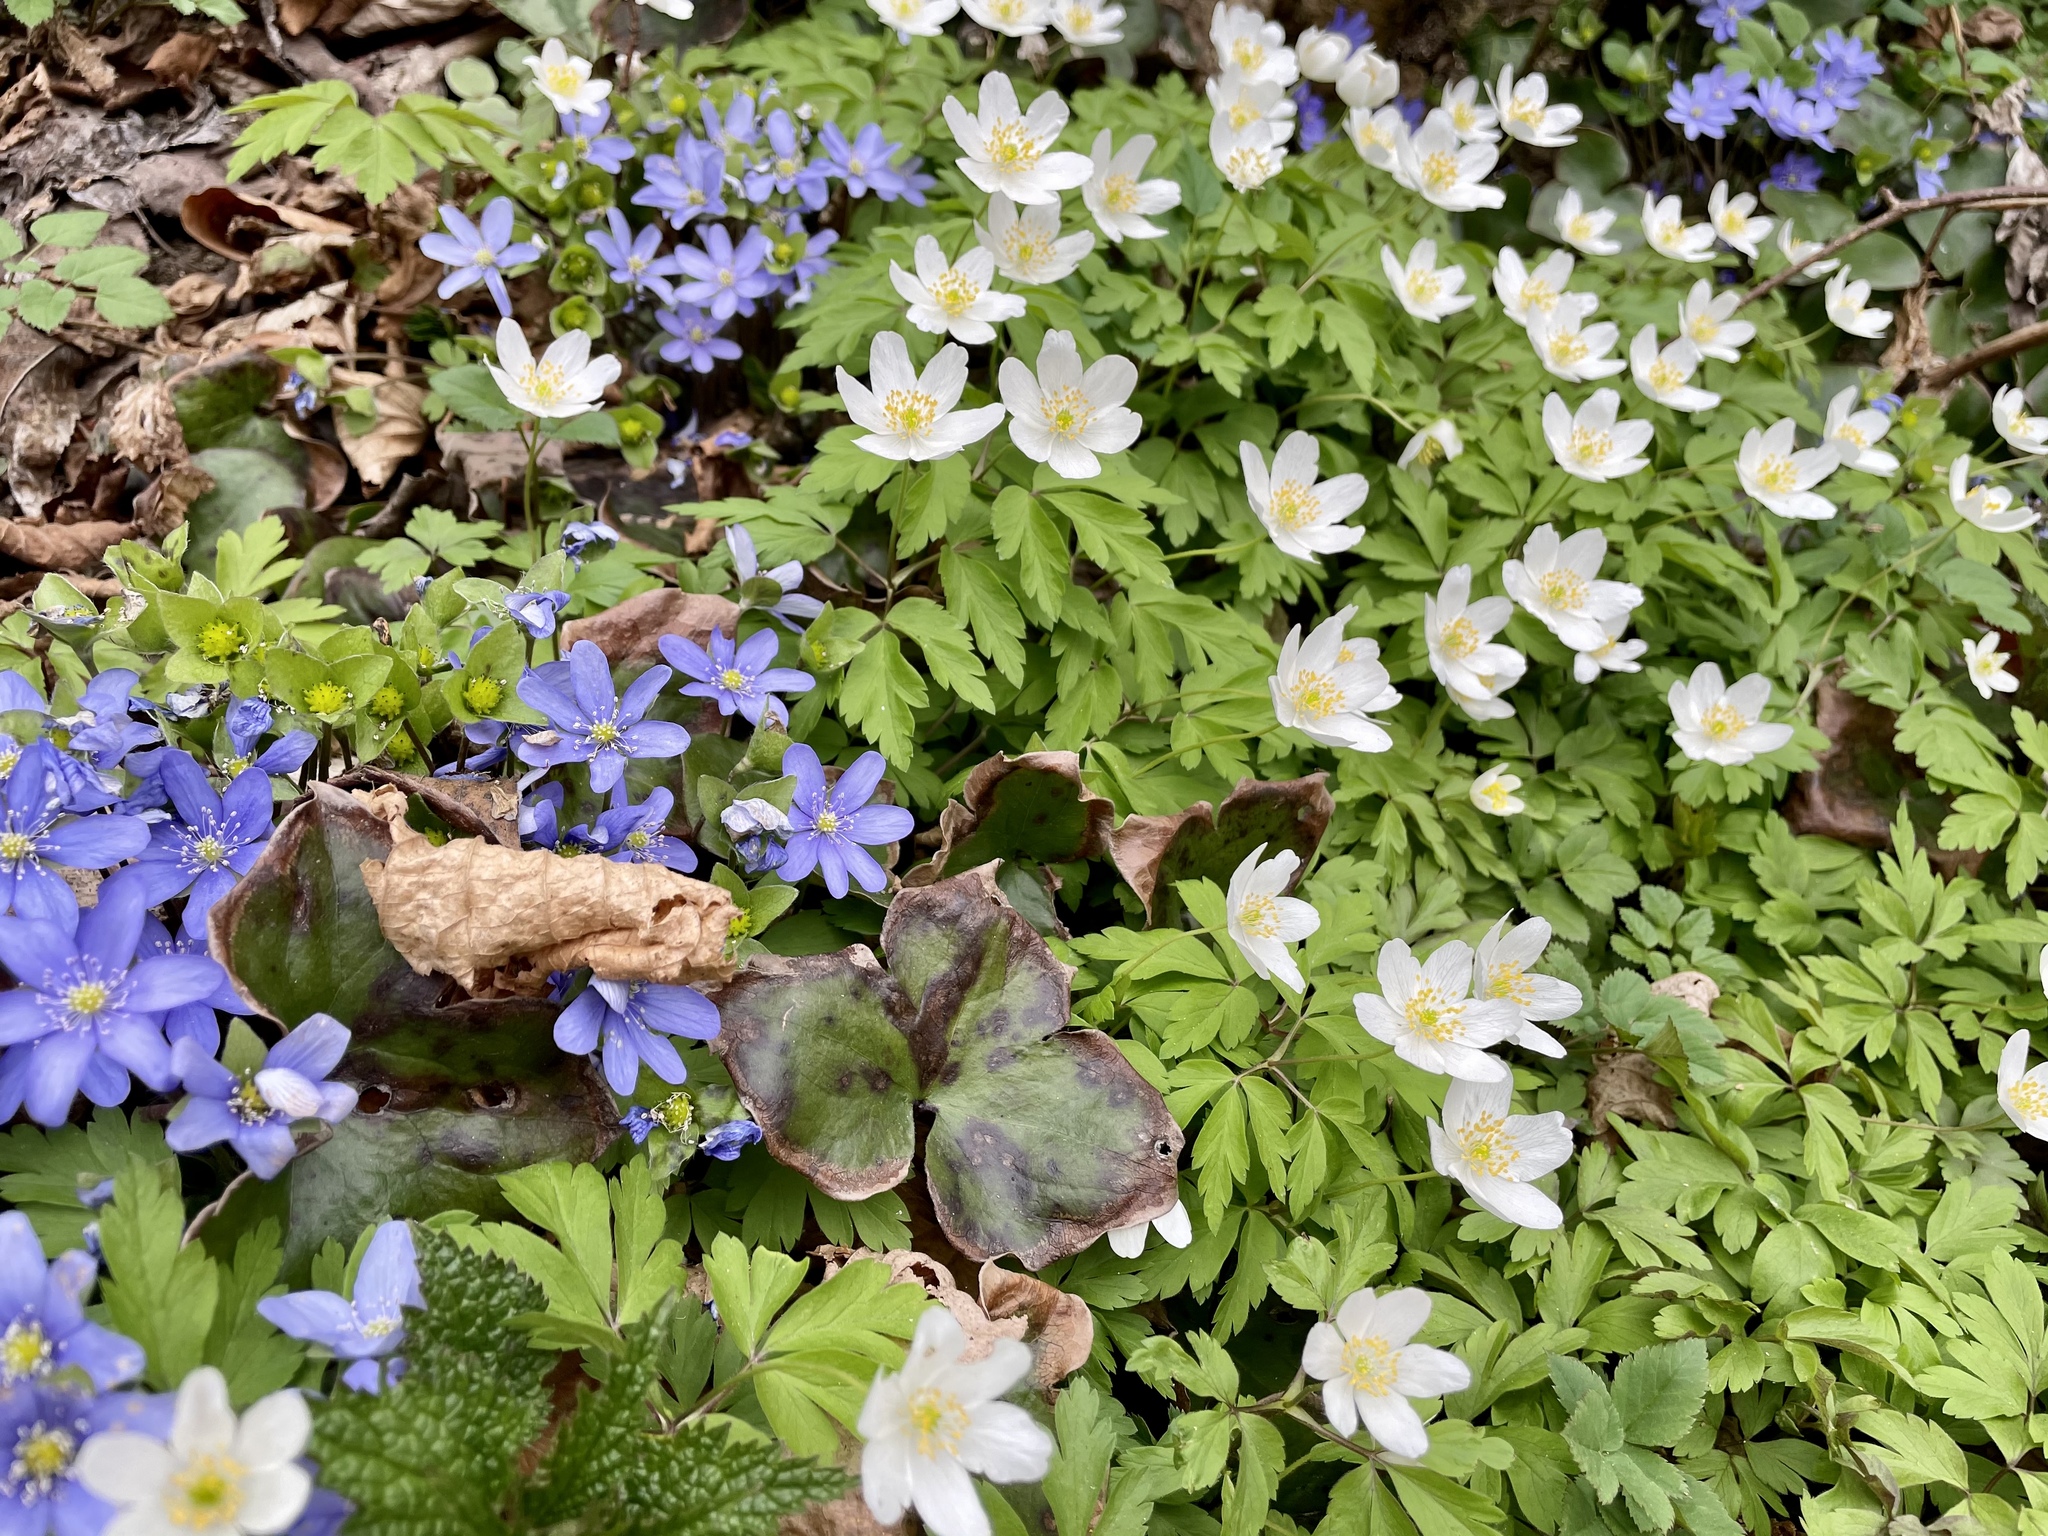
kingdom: Plantae
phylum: Tracheophyta
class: Magnoliopsida
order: Ranunculales
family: Ranunculaceae
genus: Anemone
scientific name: Anemone nemorosa
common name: Wood anemone
